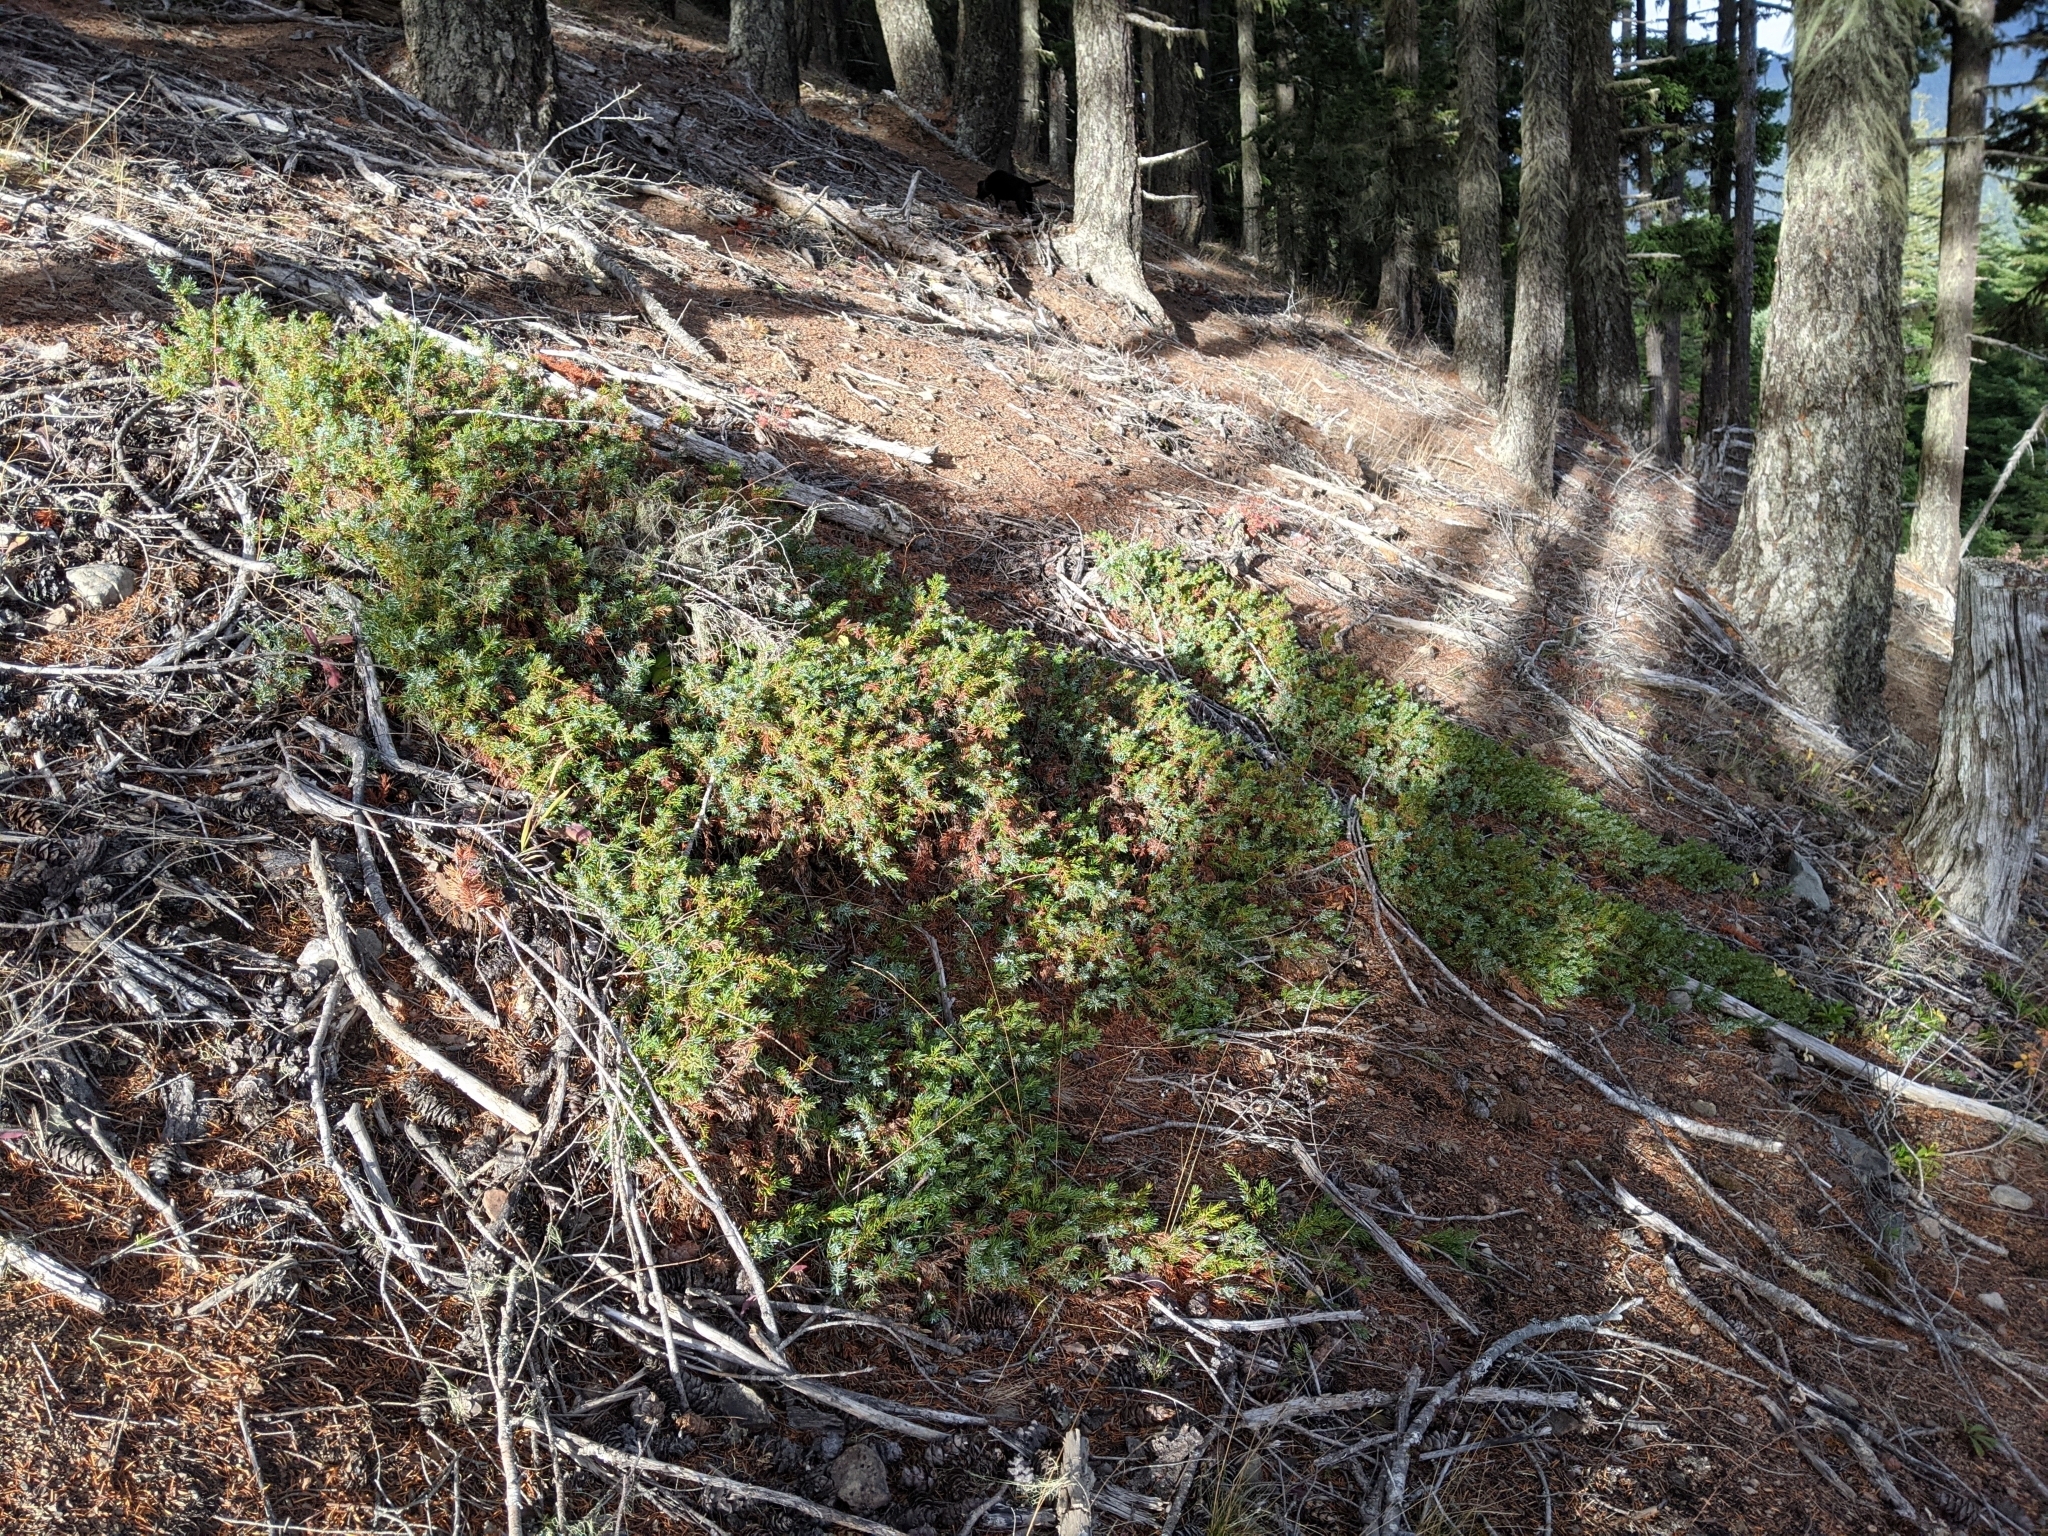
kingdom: Plantae
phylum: Tracheophyta
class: Pinopsida
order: Pinales
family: Cupressaceae
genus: Juniperus
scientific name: Juniperus communis
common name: Common juniper
